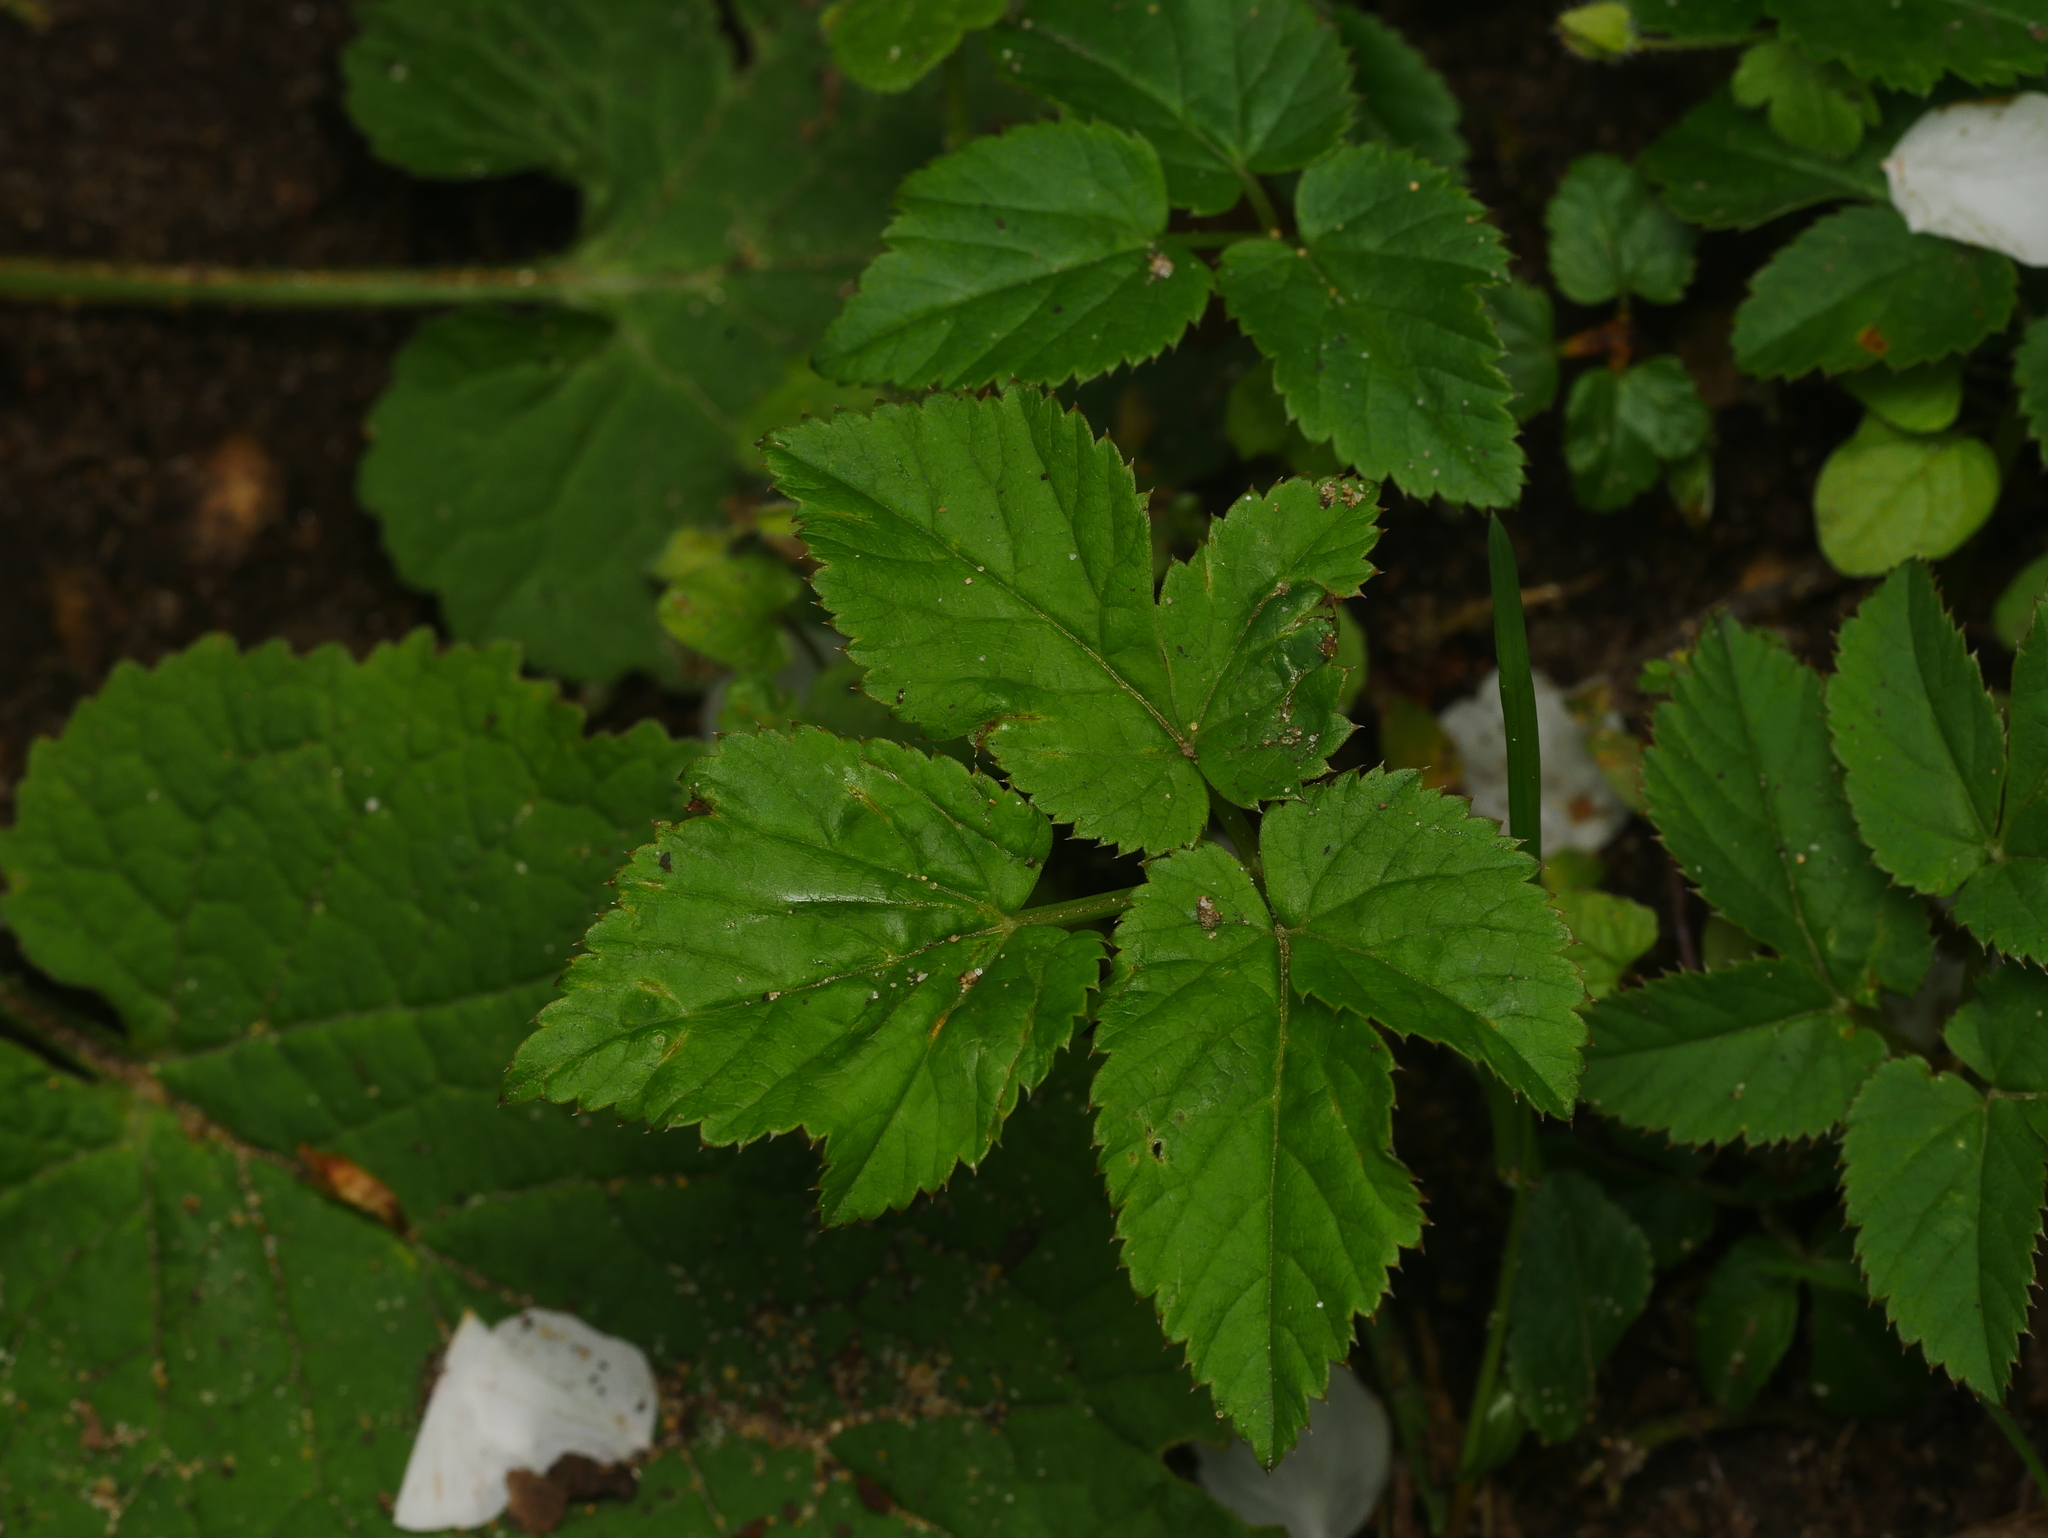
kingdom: Plantae
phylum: Tracheophyta
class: Magnoliopsida
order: Apiales
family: Apiaceae
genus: Aegopodium
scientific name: Aegopodium podagraria
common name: Ground-elder
